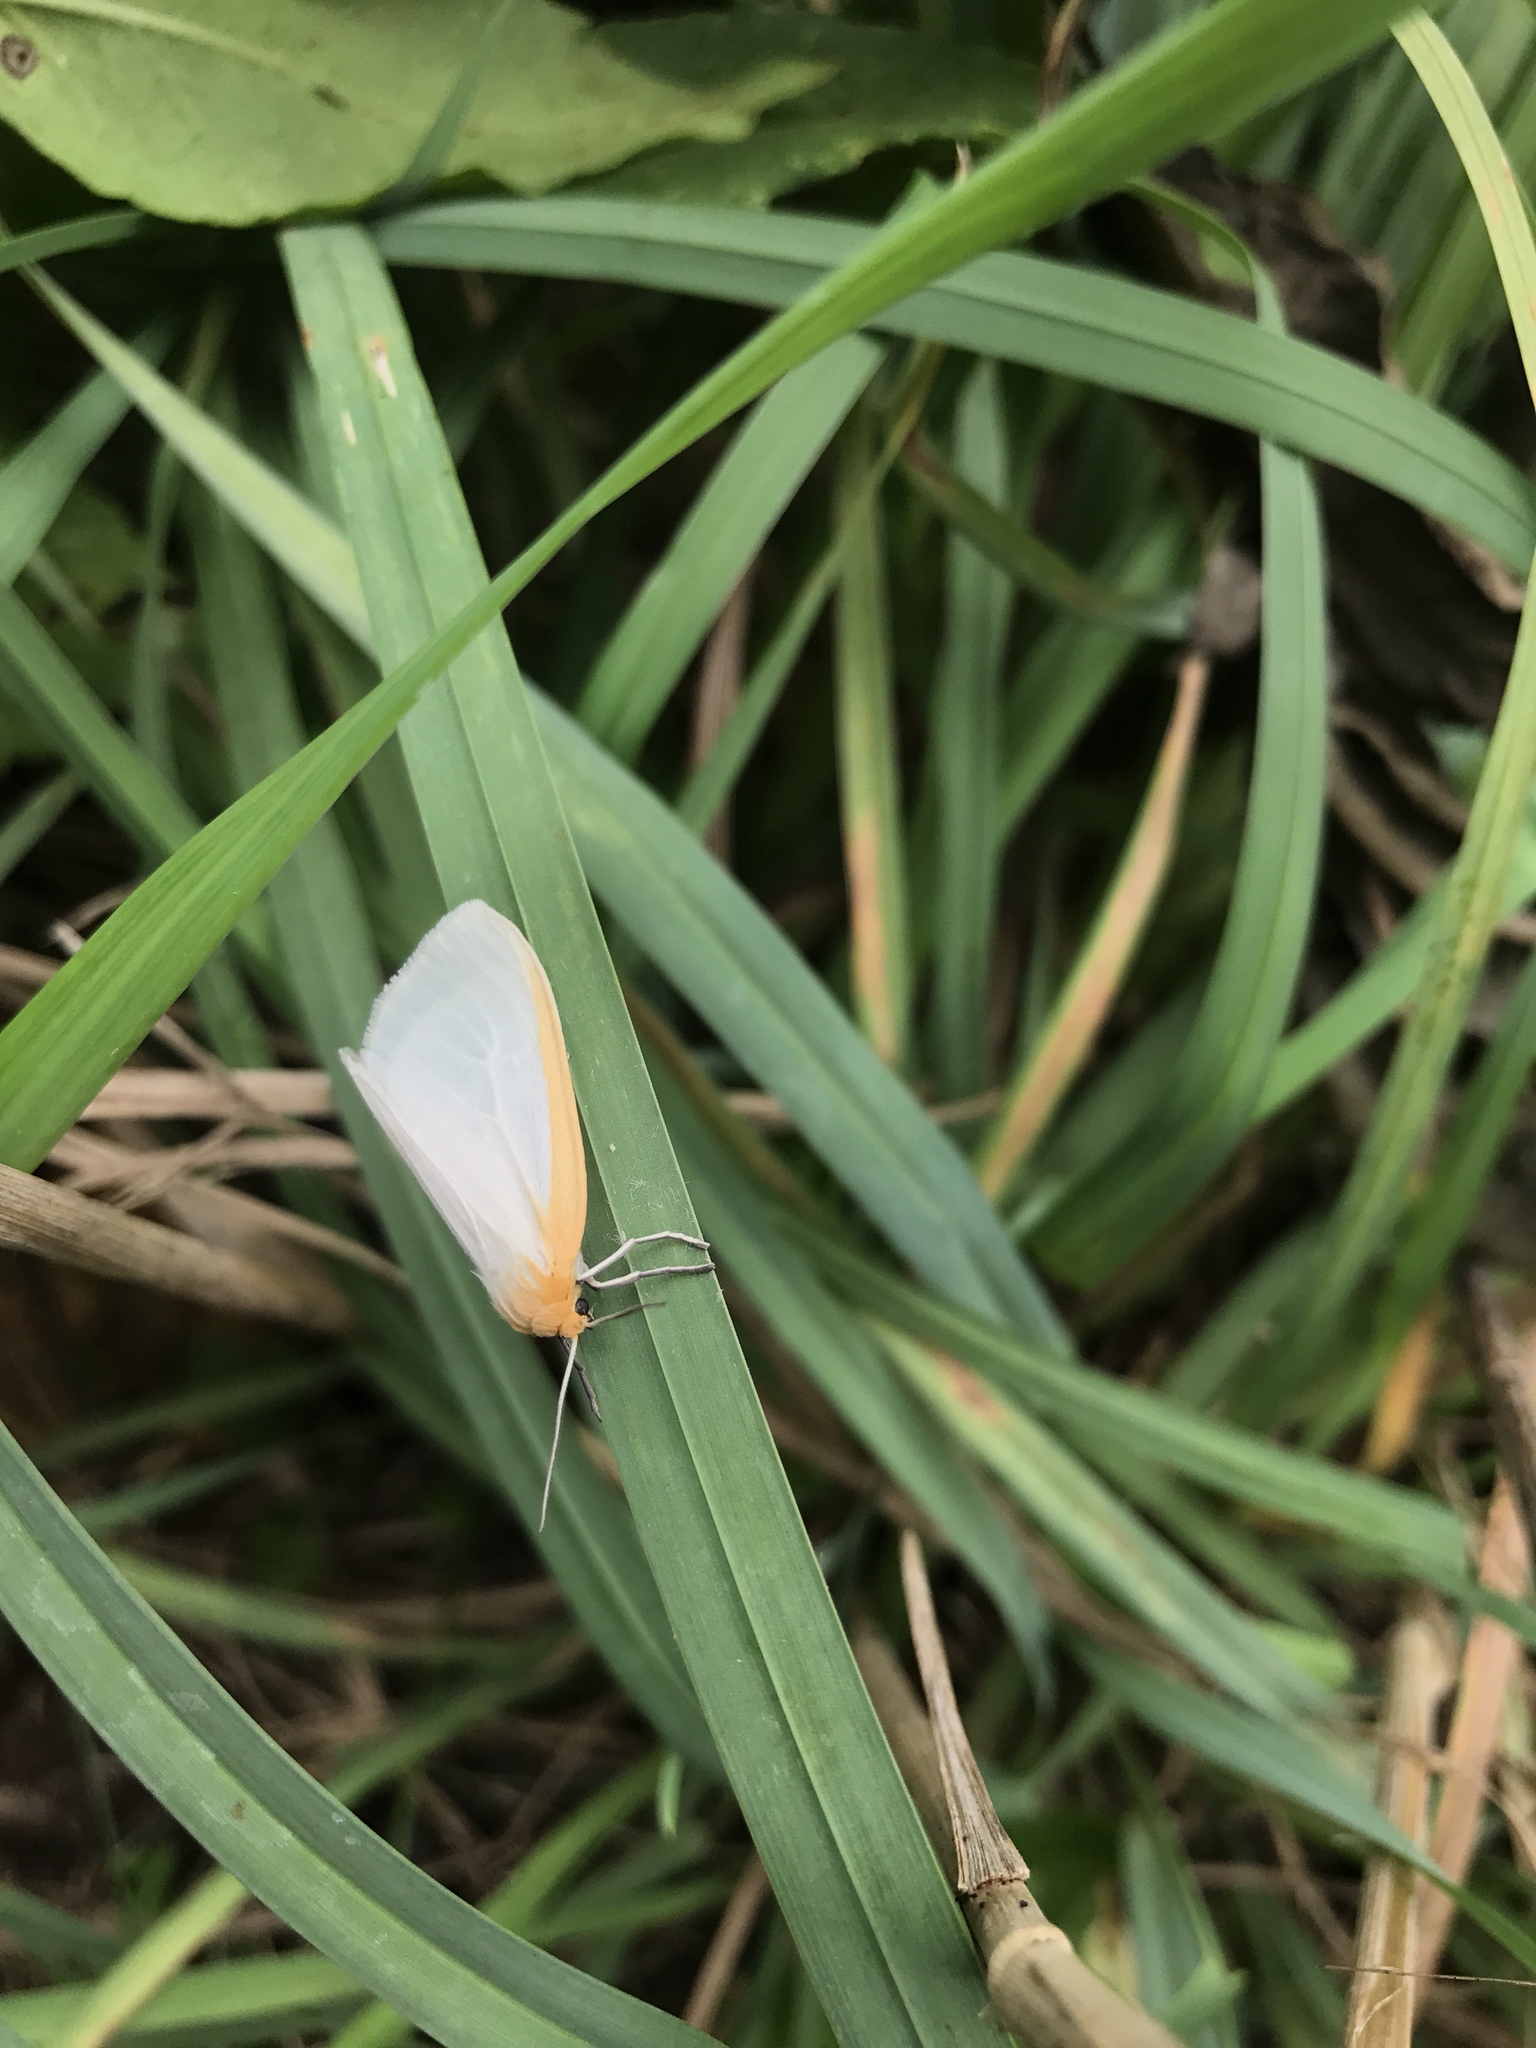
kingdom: Animalia
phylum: Arthropoda
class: Insecta
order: Lepidoptera
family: Erebidae
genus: Cycnia
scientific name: Cycnia tenera
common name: Delicate cycnia moth
